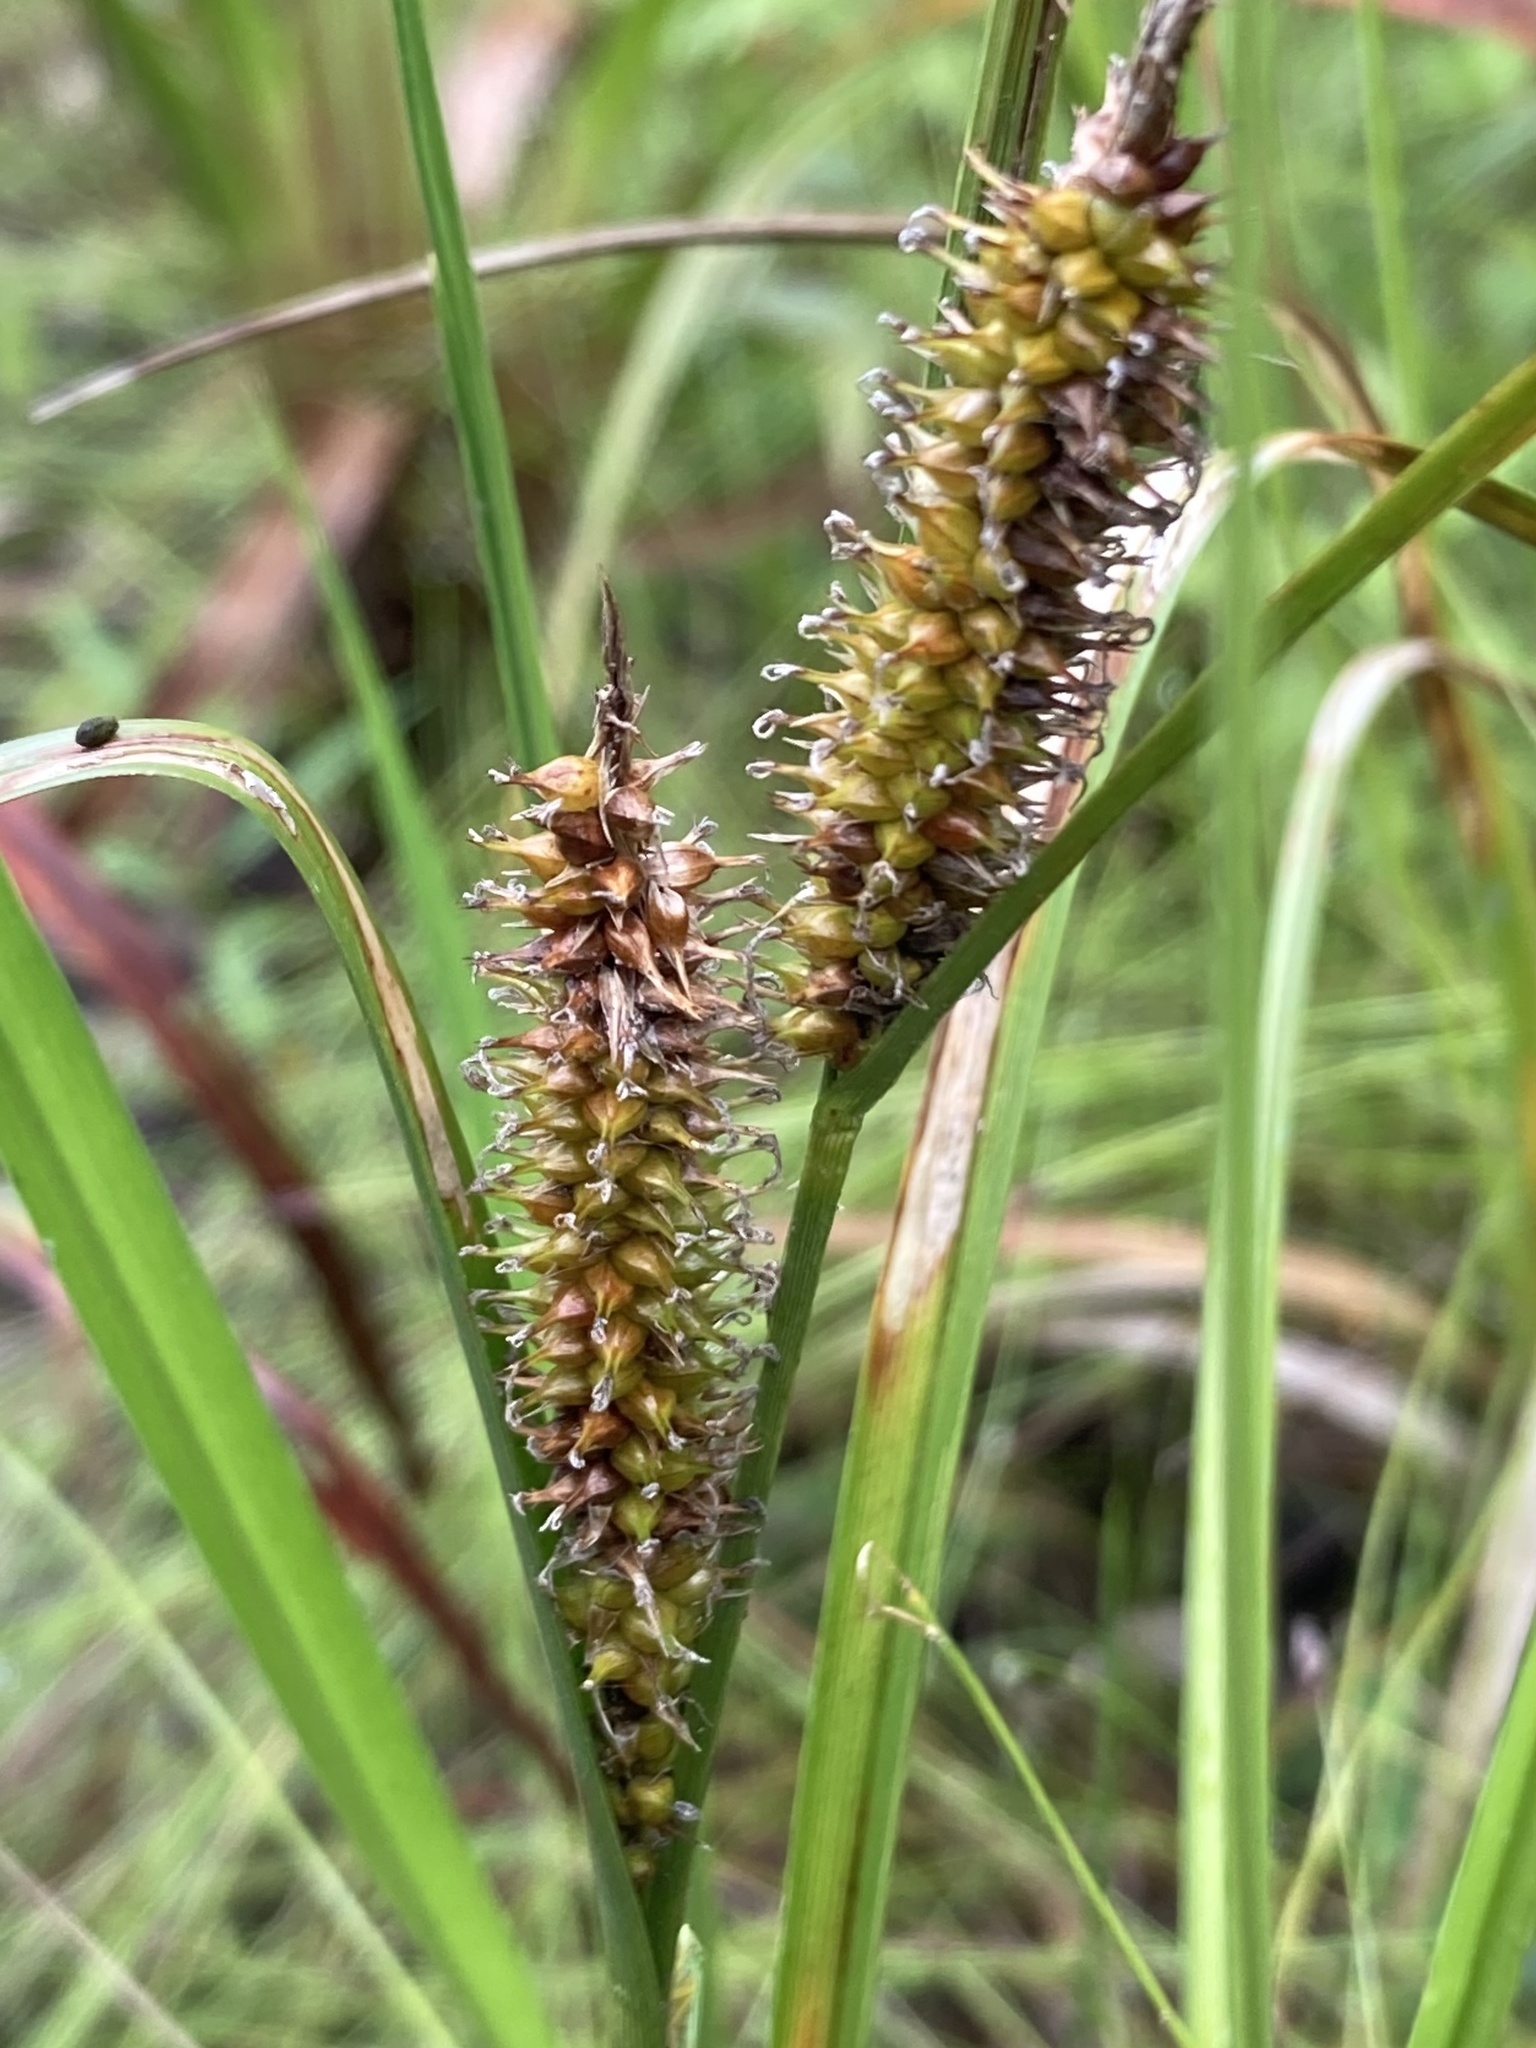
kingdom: Plantae
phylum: Tracheophyta
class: Liliopsida
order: Poales
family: Cyperaceae
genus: Carex
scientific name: Carex utriculata
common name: Beaked sedge
